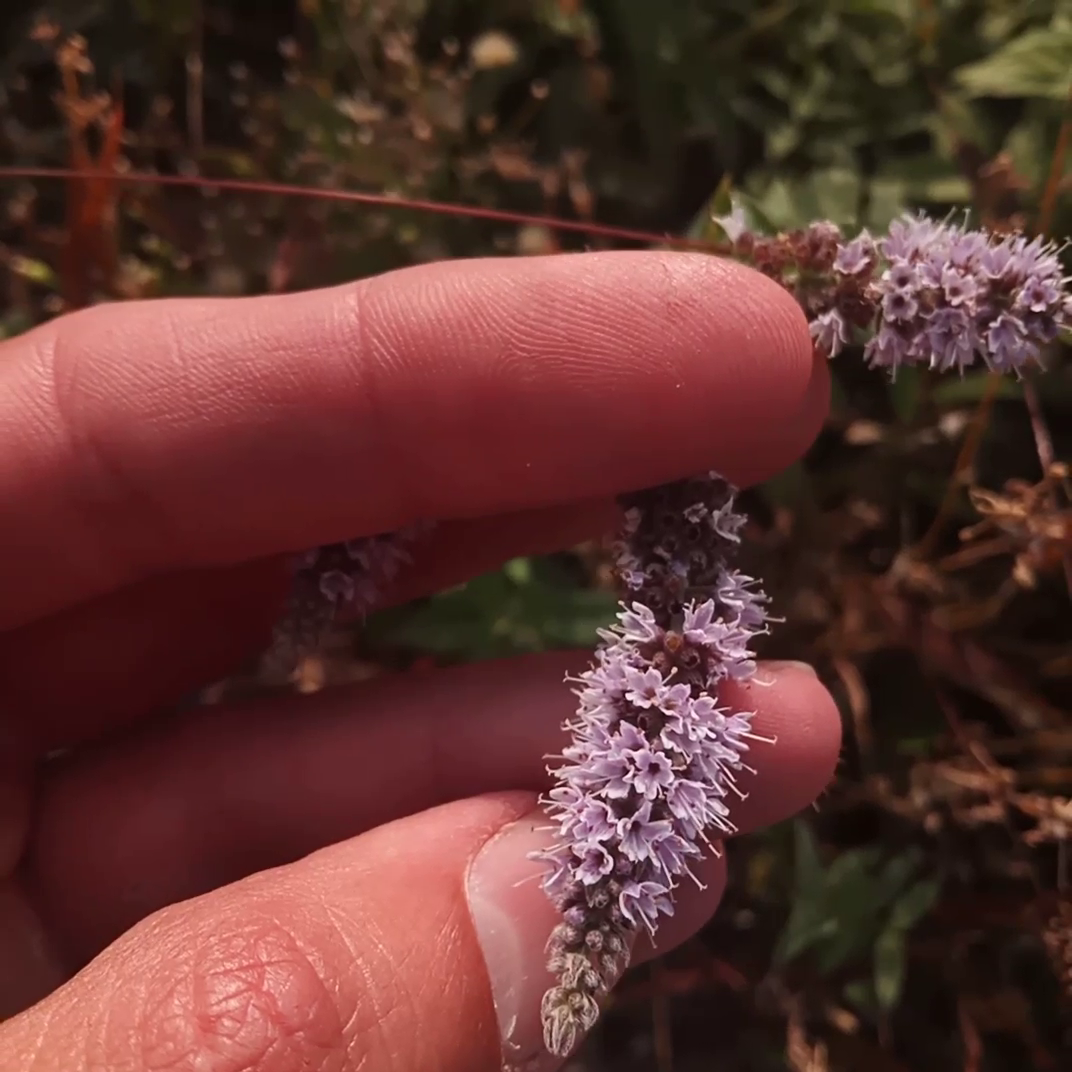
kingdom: Plantae
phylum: Tracheophyta
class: Magnoliopsida
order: Lamiales
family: Lamiaceae
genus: Mentha
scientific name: Mentha longifolia
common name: Horse mint
